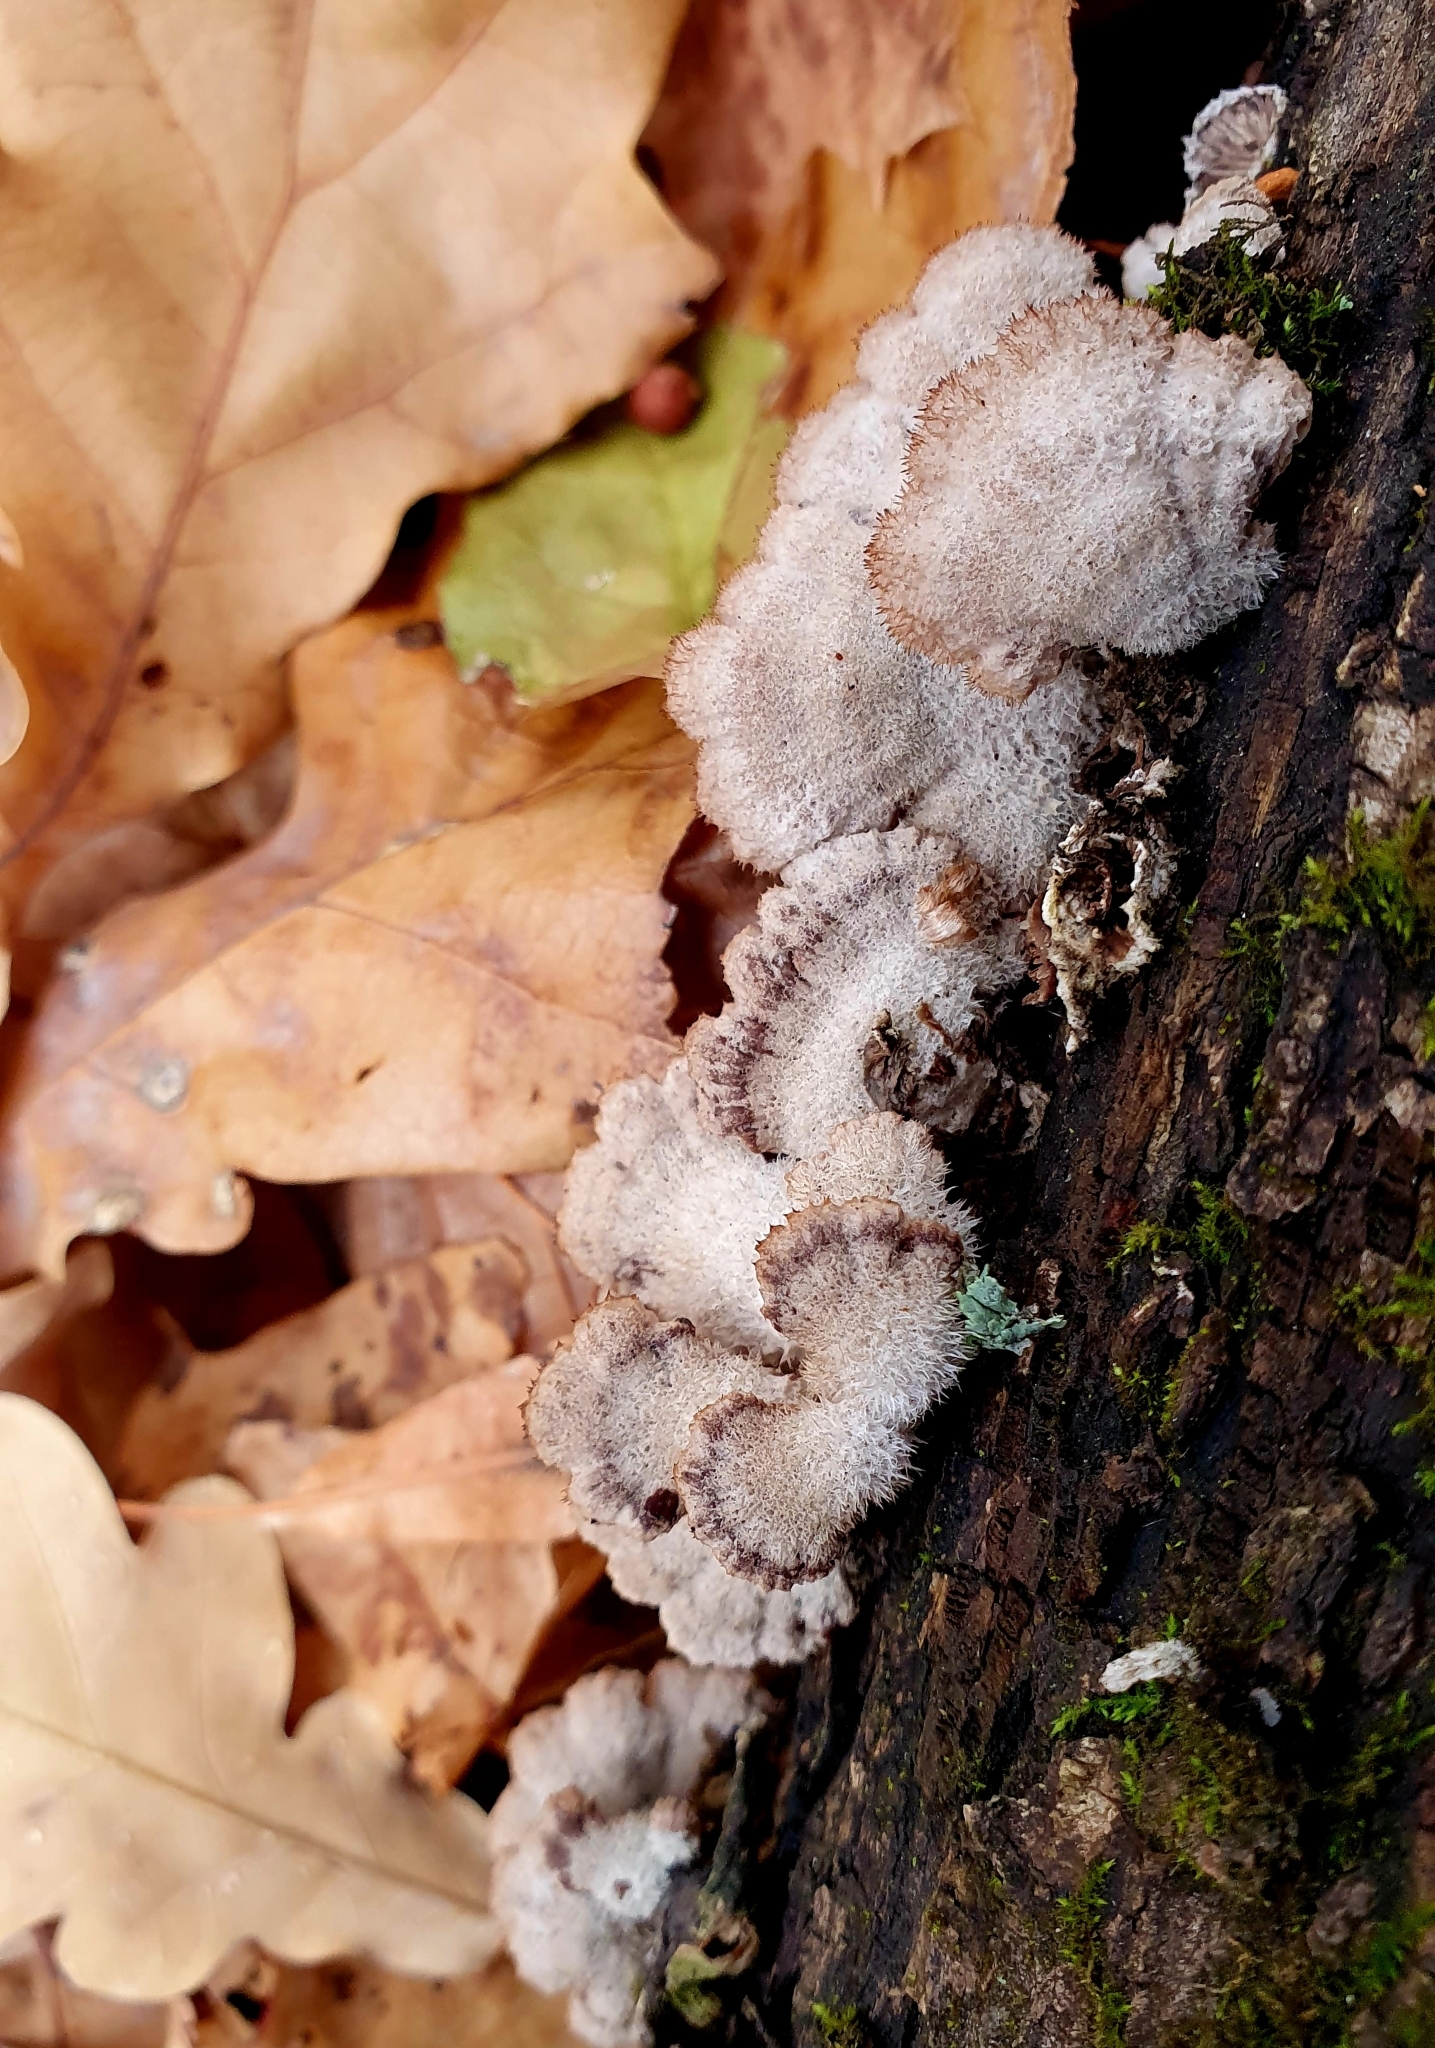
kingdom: Fungi
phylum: Basidiomycota
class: Agaricomycetes
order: Agaricales
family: Schizophyllaceae
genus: Schizophyllum
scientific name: Schizophyllum commune
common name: Common porecrust
